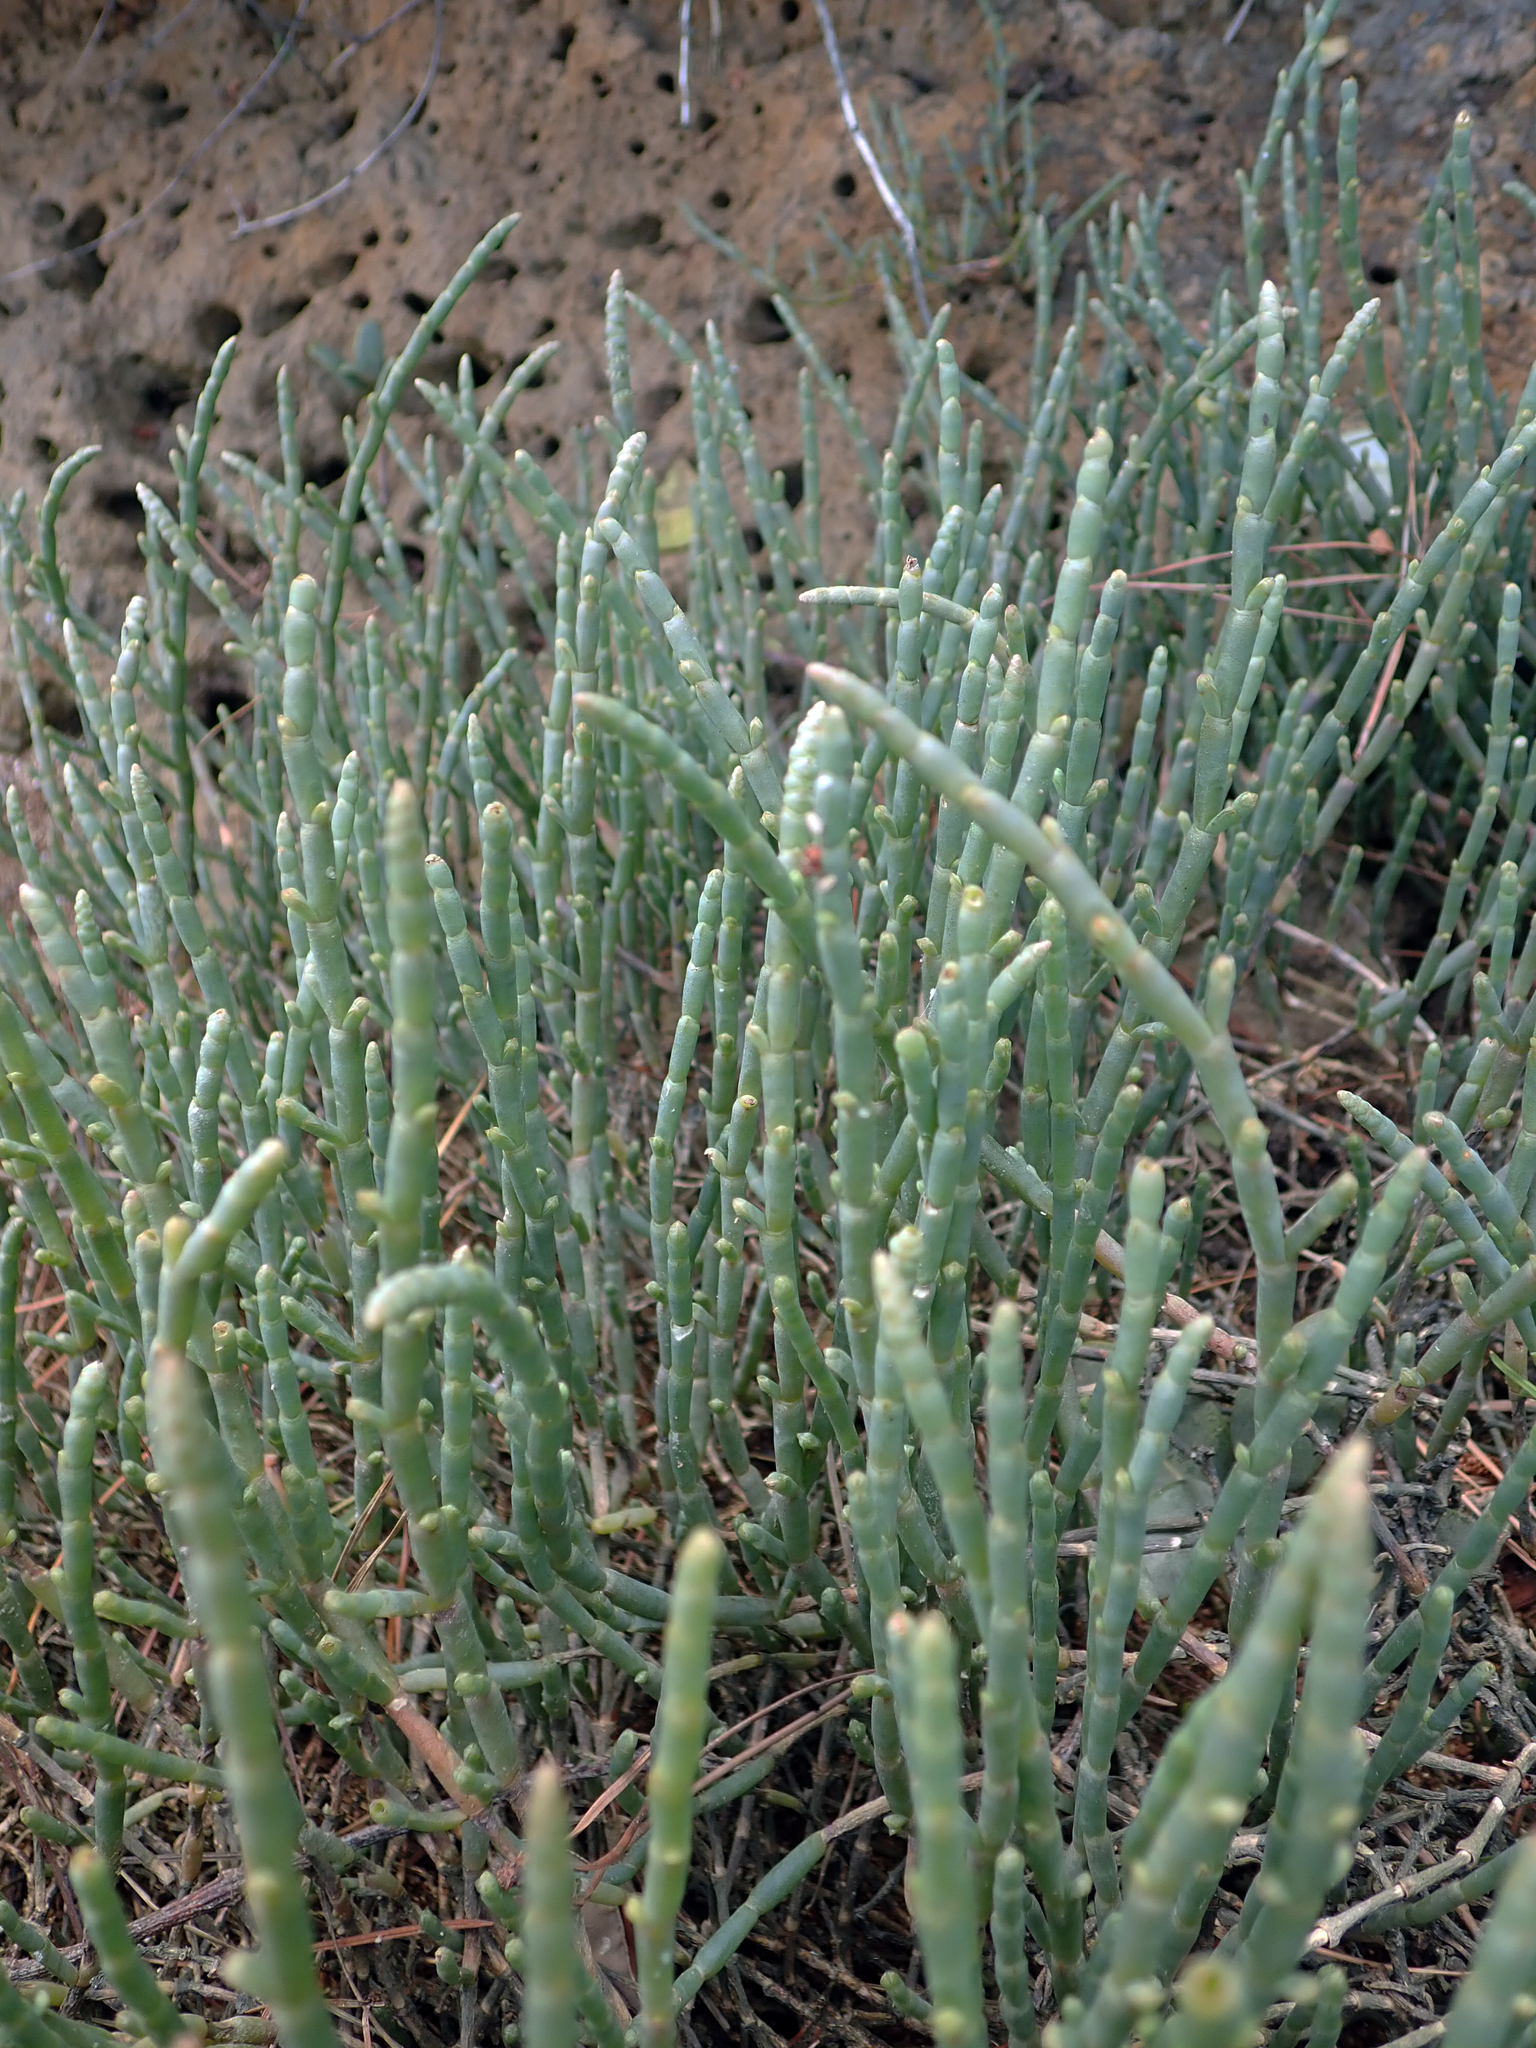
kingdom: Plantae
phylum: Tracheophyta
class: Magnoliopsida
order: Caryophyllales
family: Amaranthaceae
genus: Salicornia
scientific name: Salicornia quinqueflora
